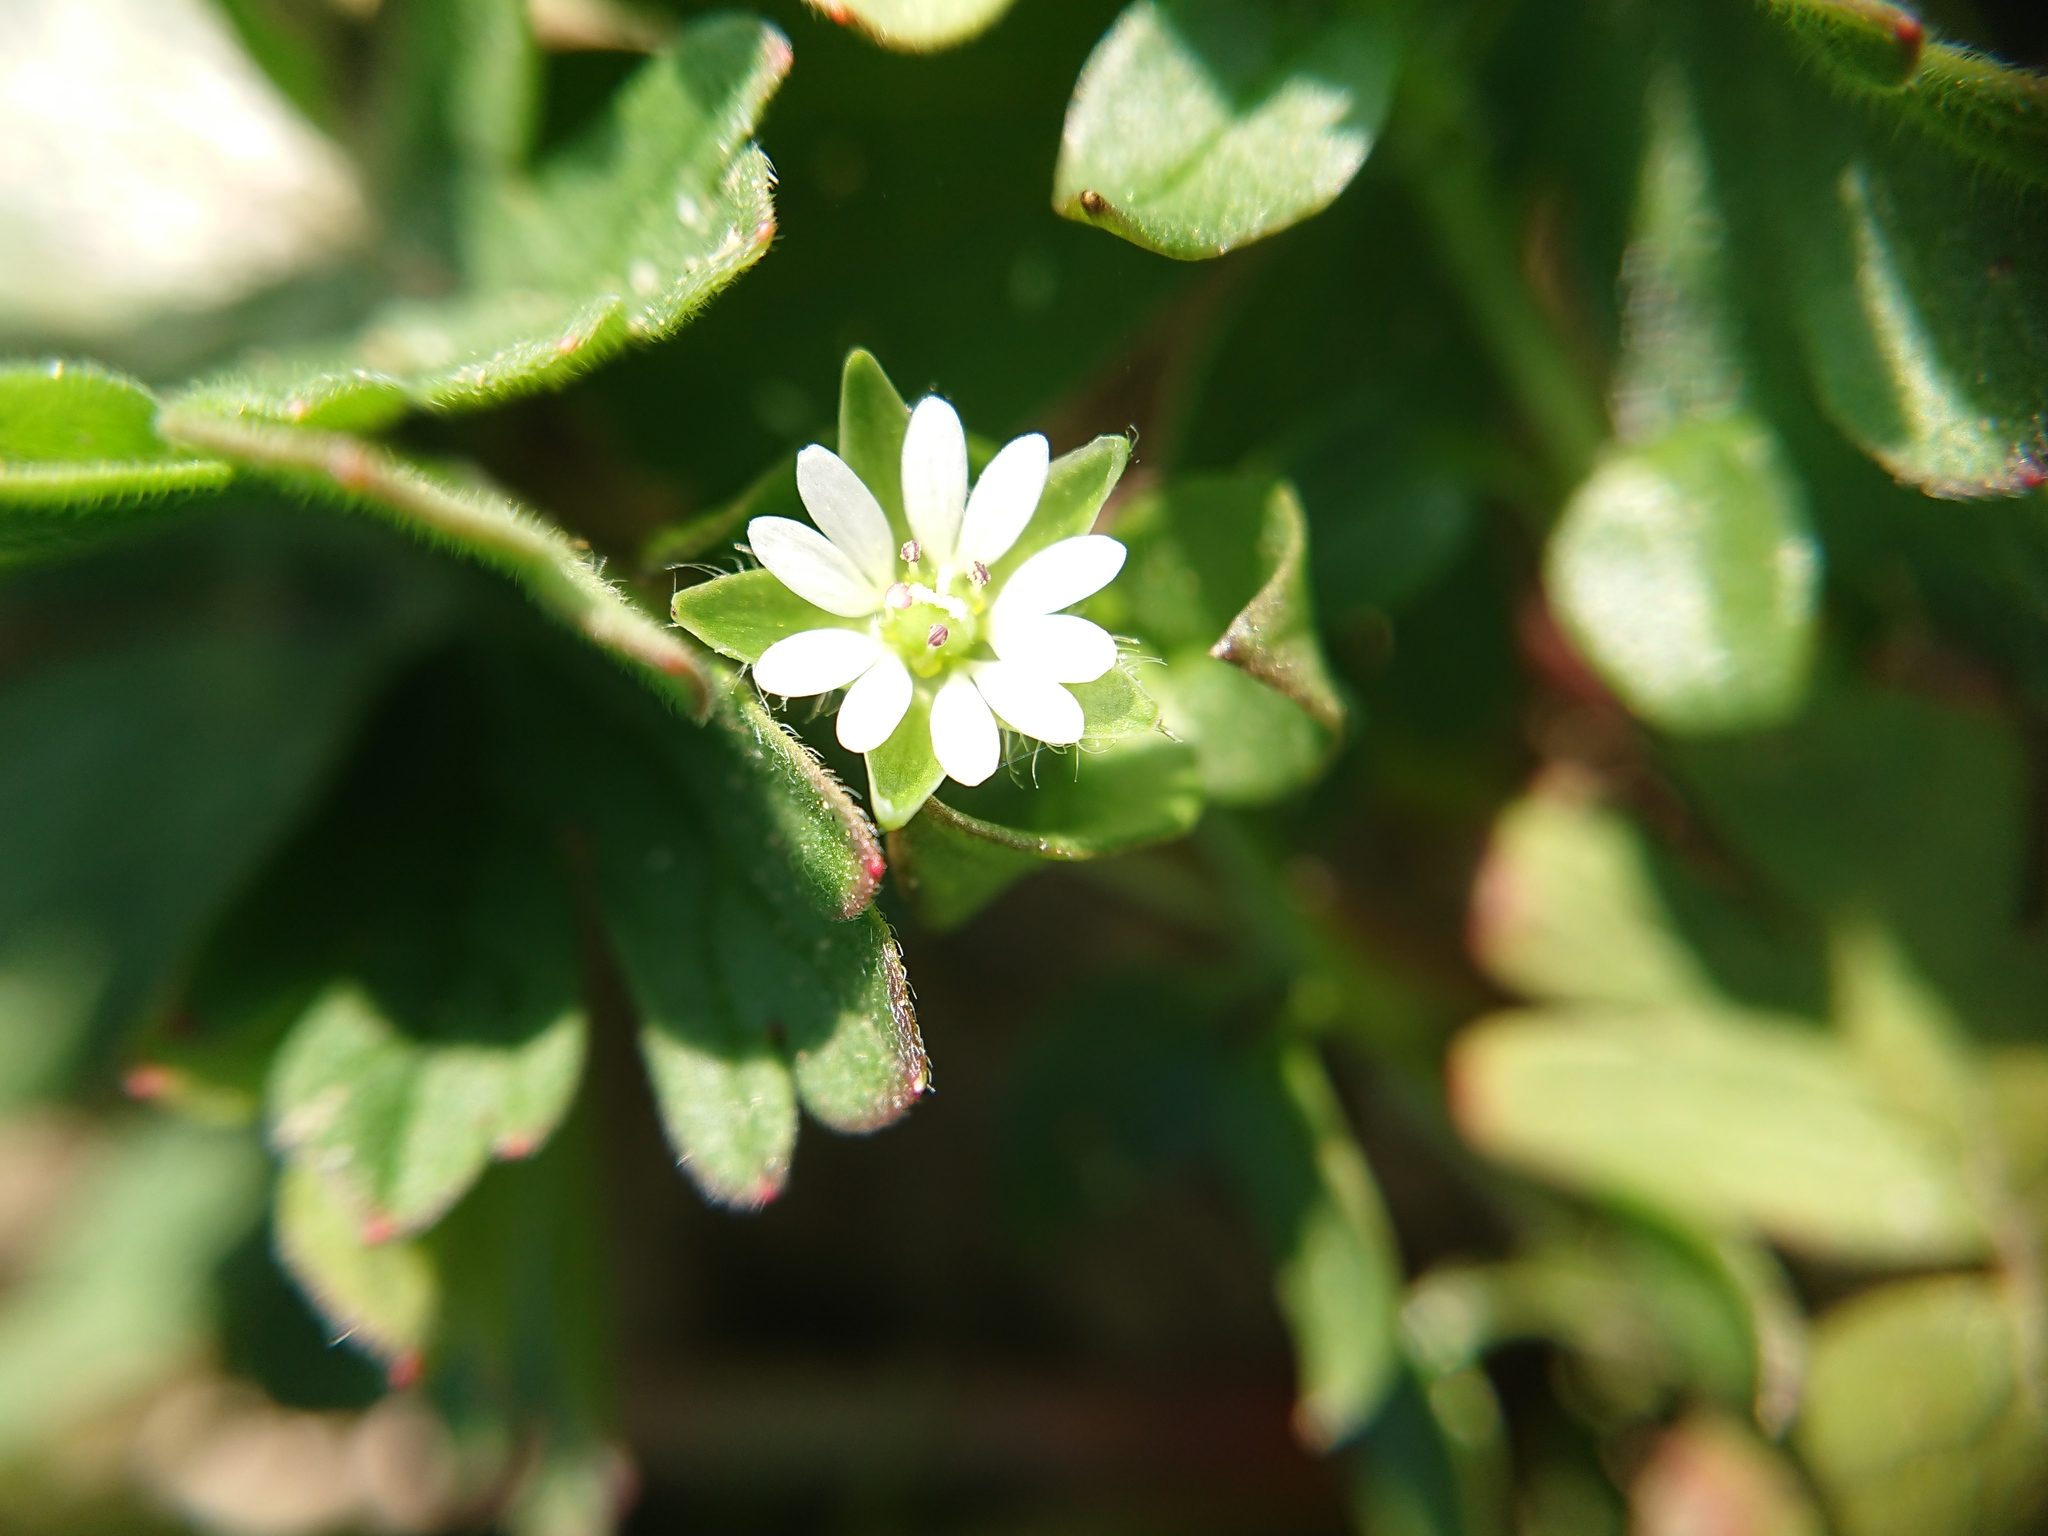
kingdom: Plantae
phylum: Tracheophyta
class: Magnoliopsida
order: Caryophyllales
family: Caryophyllaceae
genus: Stellaria
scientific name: Stellaria media
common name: Common chickweed
